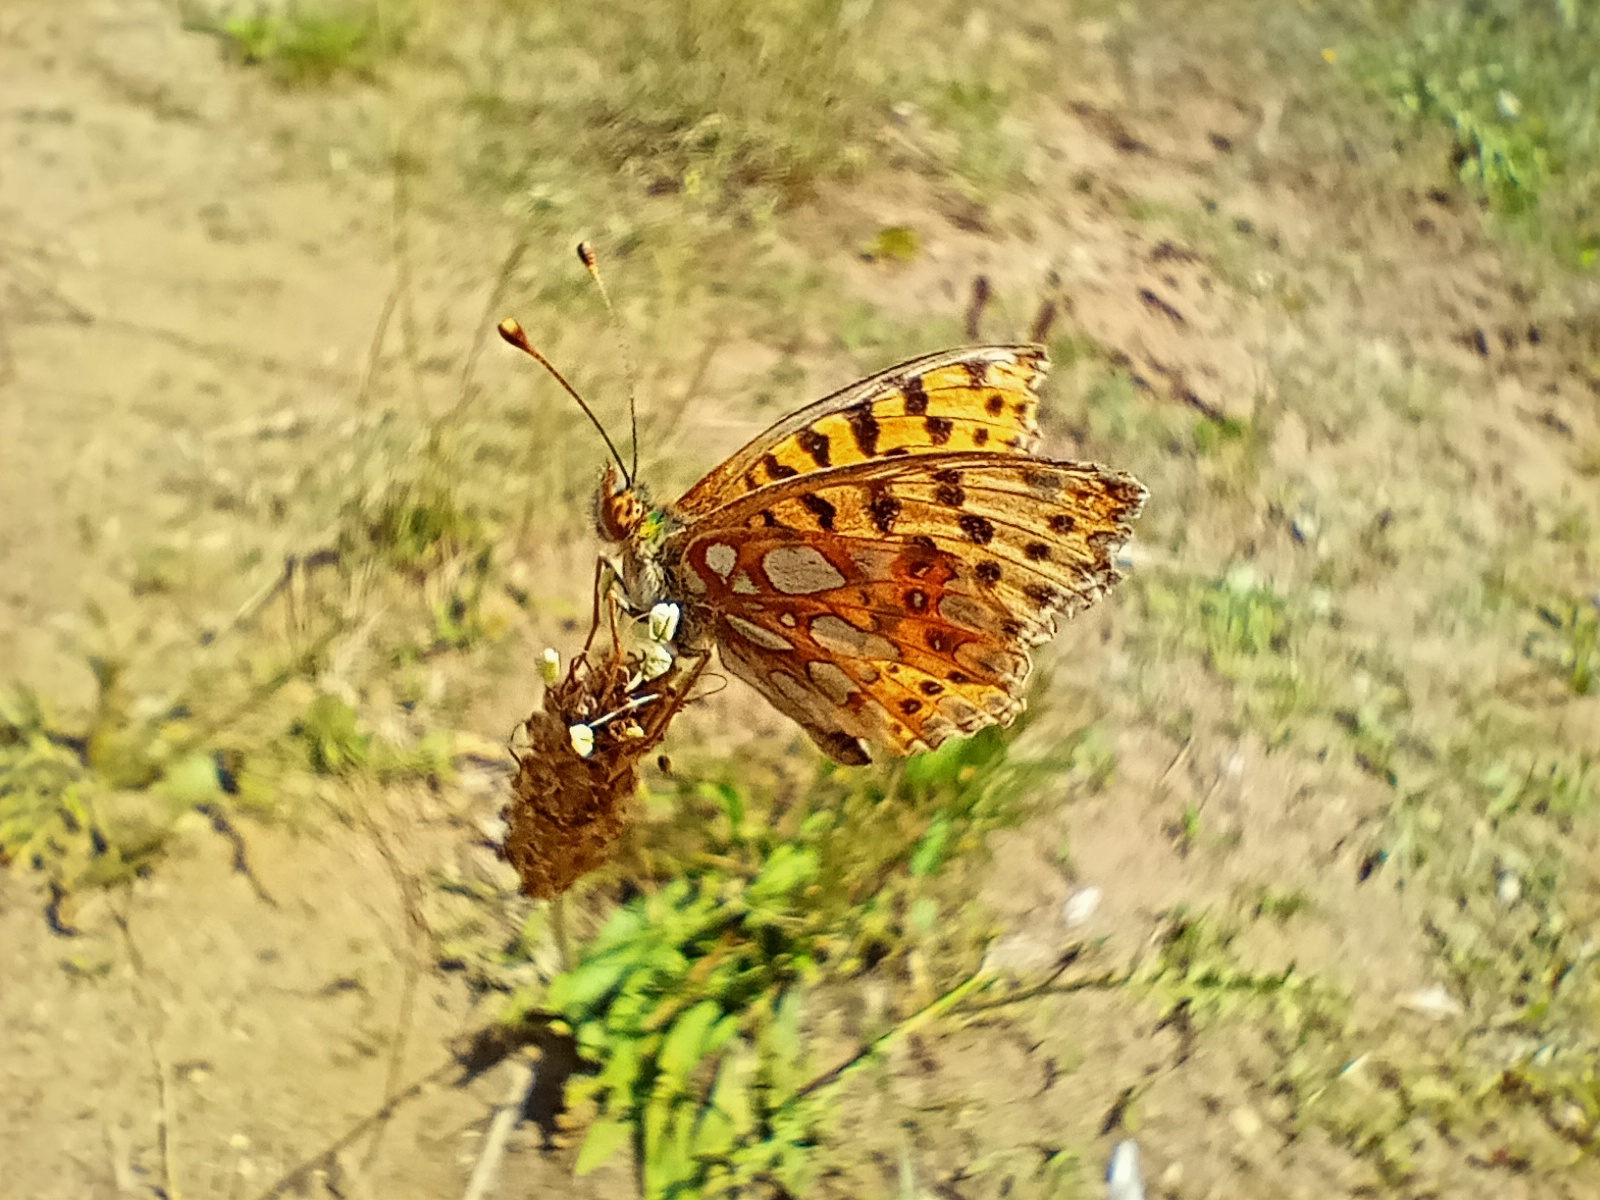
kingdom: Animalia
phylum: Arthropoda
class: Insecta
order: Lepidoptera
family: Nymphalidae
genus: Issoria
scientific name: Issoria lathonia
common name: Queen of spain fritillary
